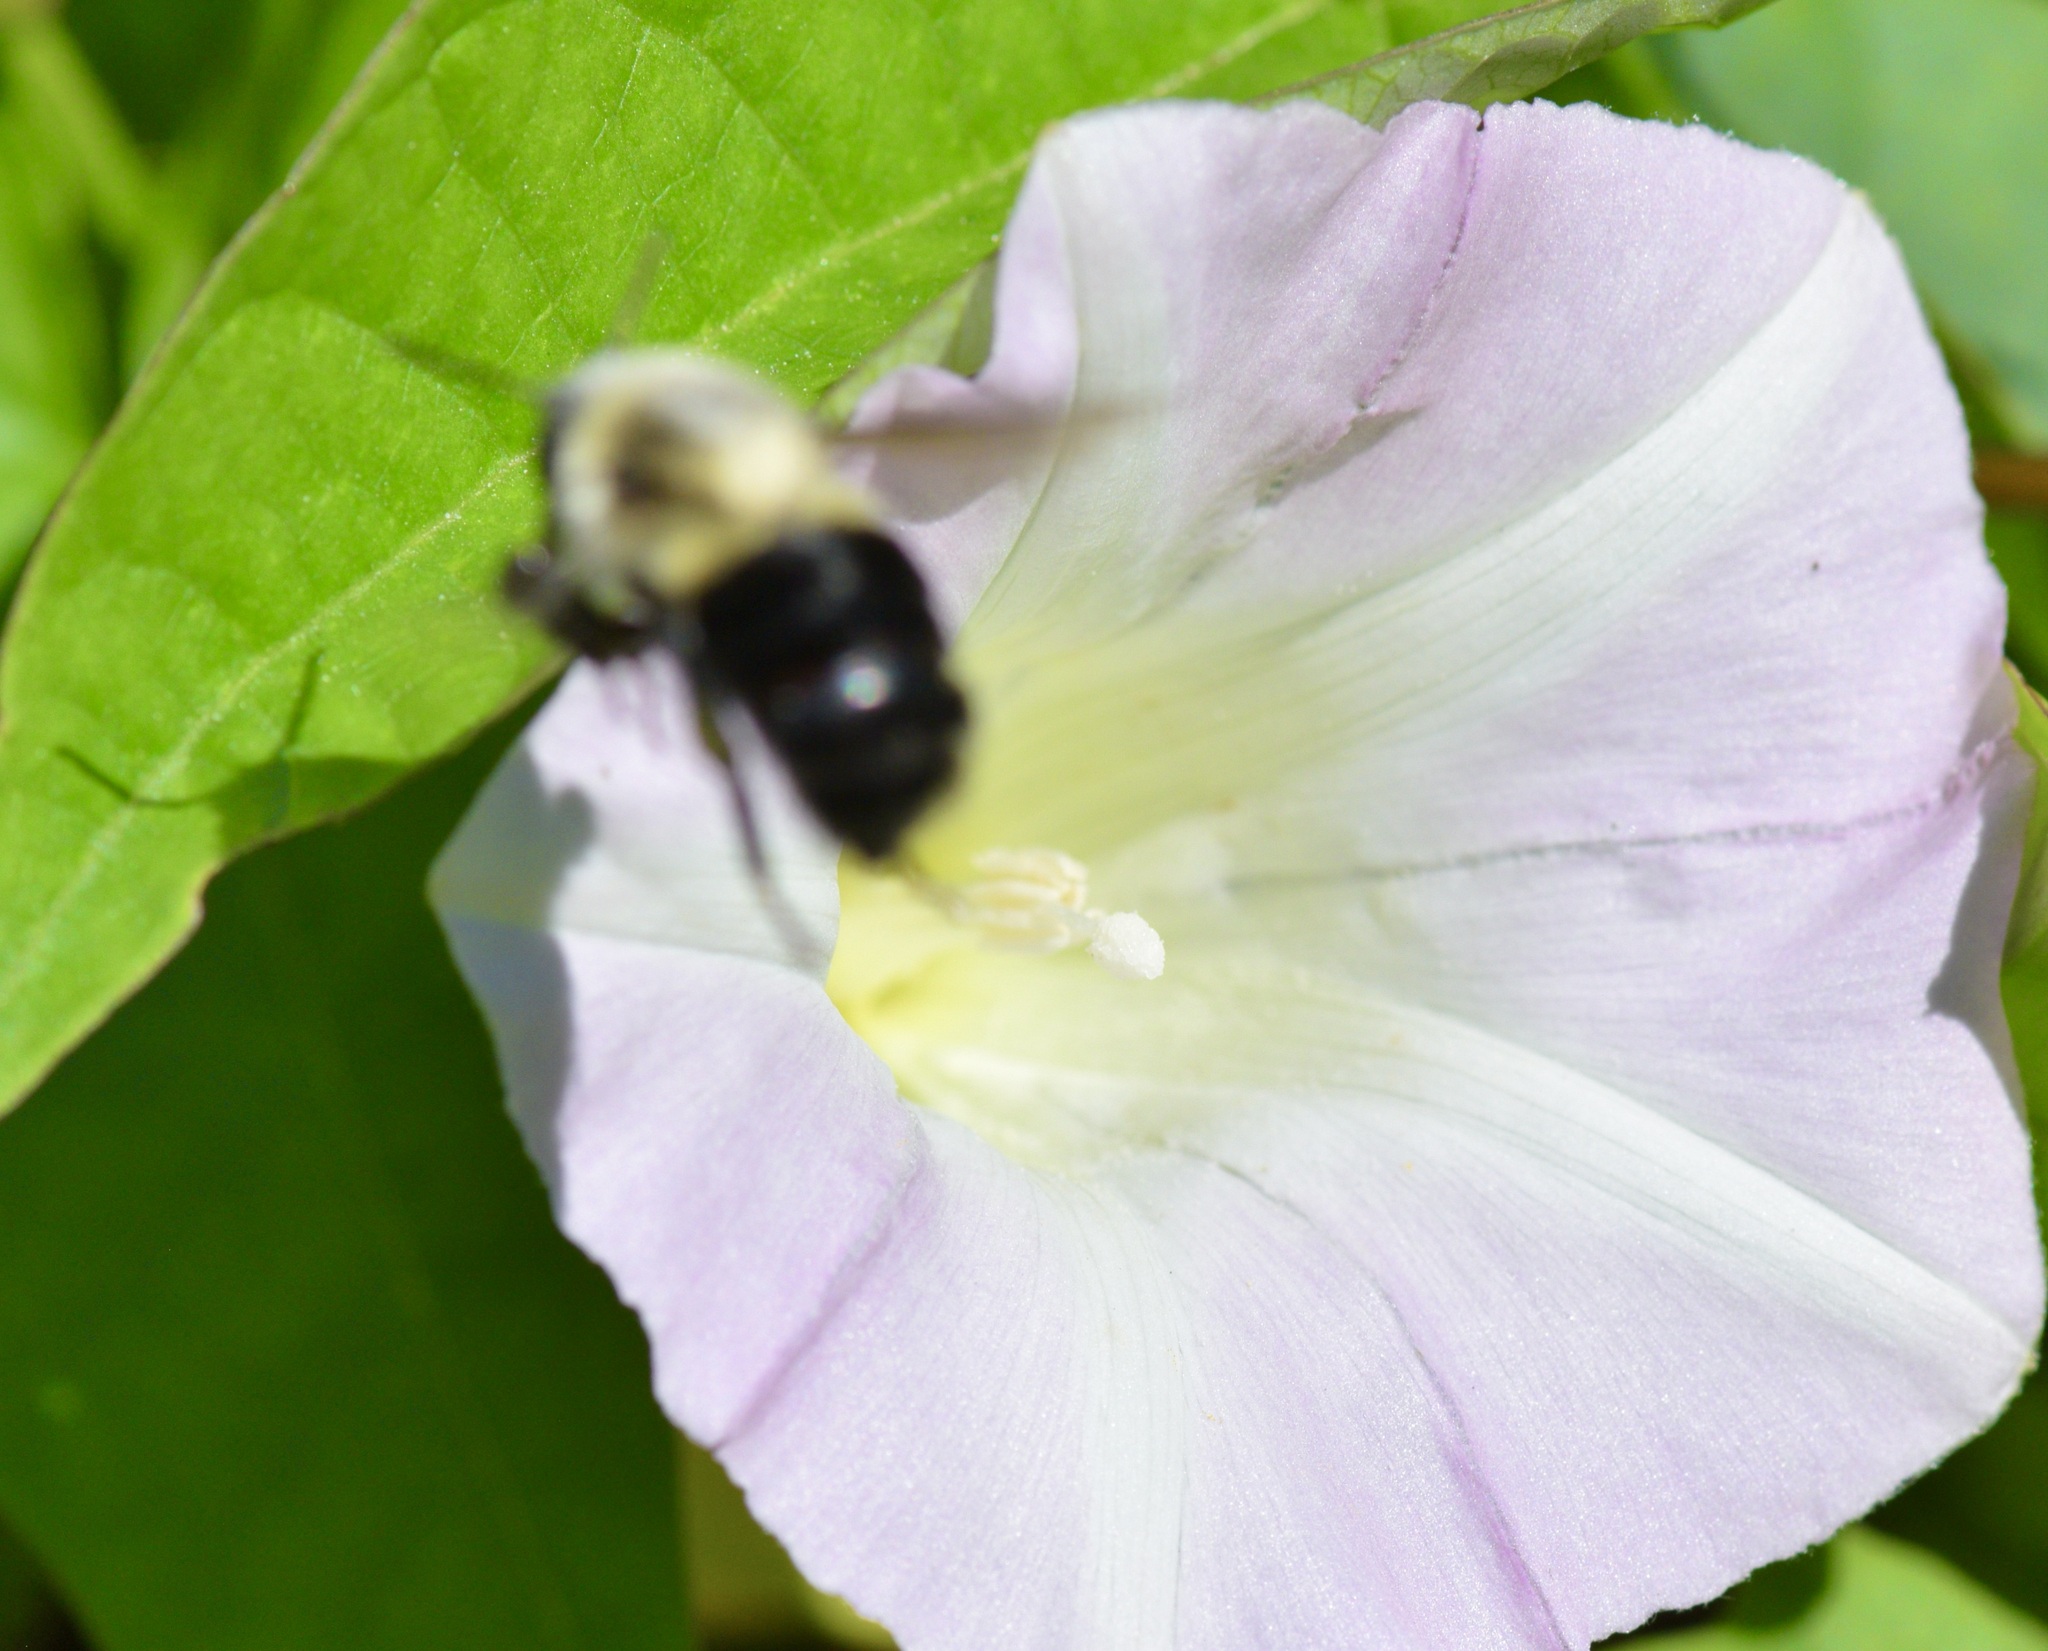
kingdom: Animalia
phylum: Arthropoda
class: Insecta
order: Hymenoptera
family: Apidae
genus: Bombus
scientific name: Bombus impatiens
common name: Common eastern bumble bee
